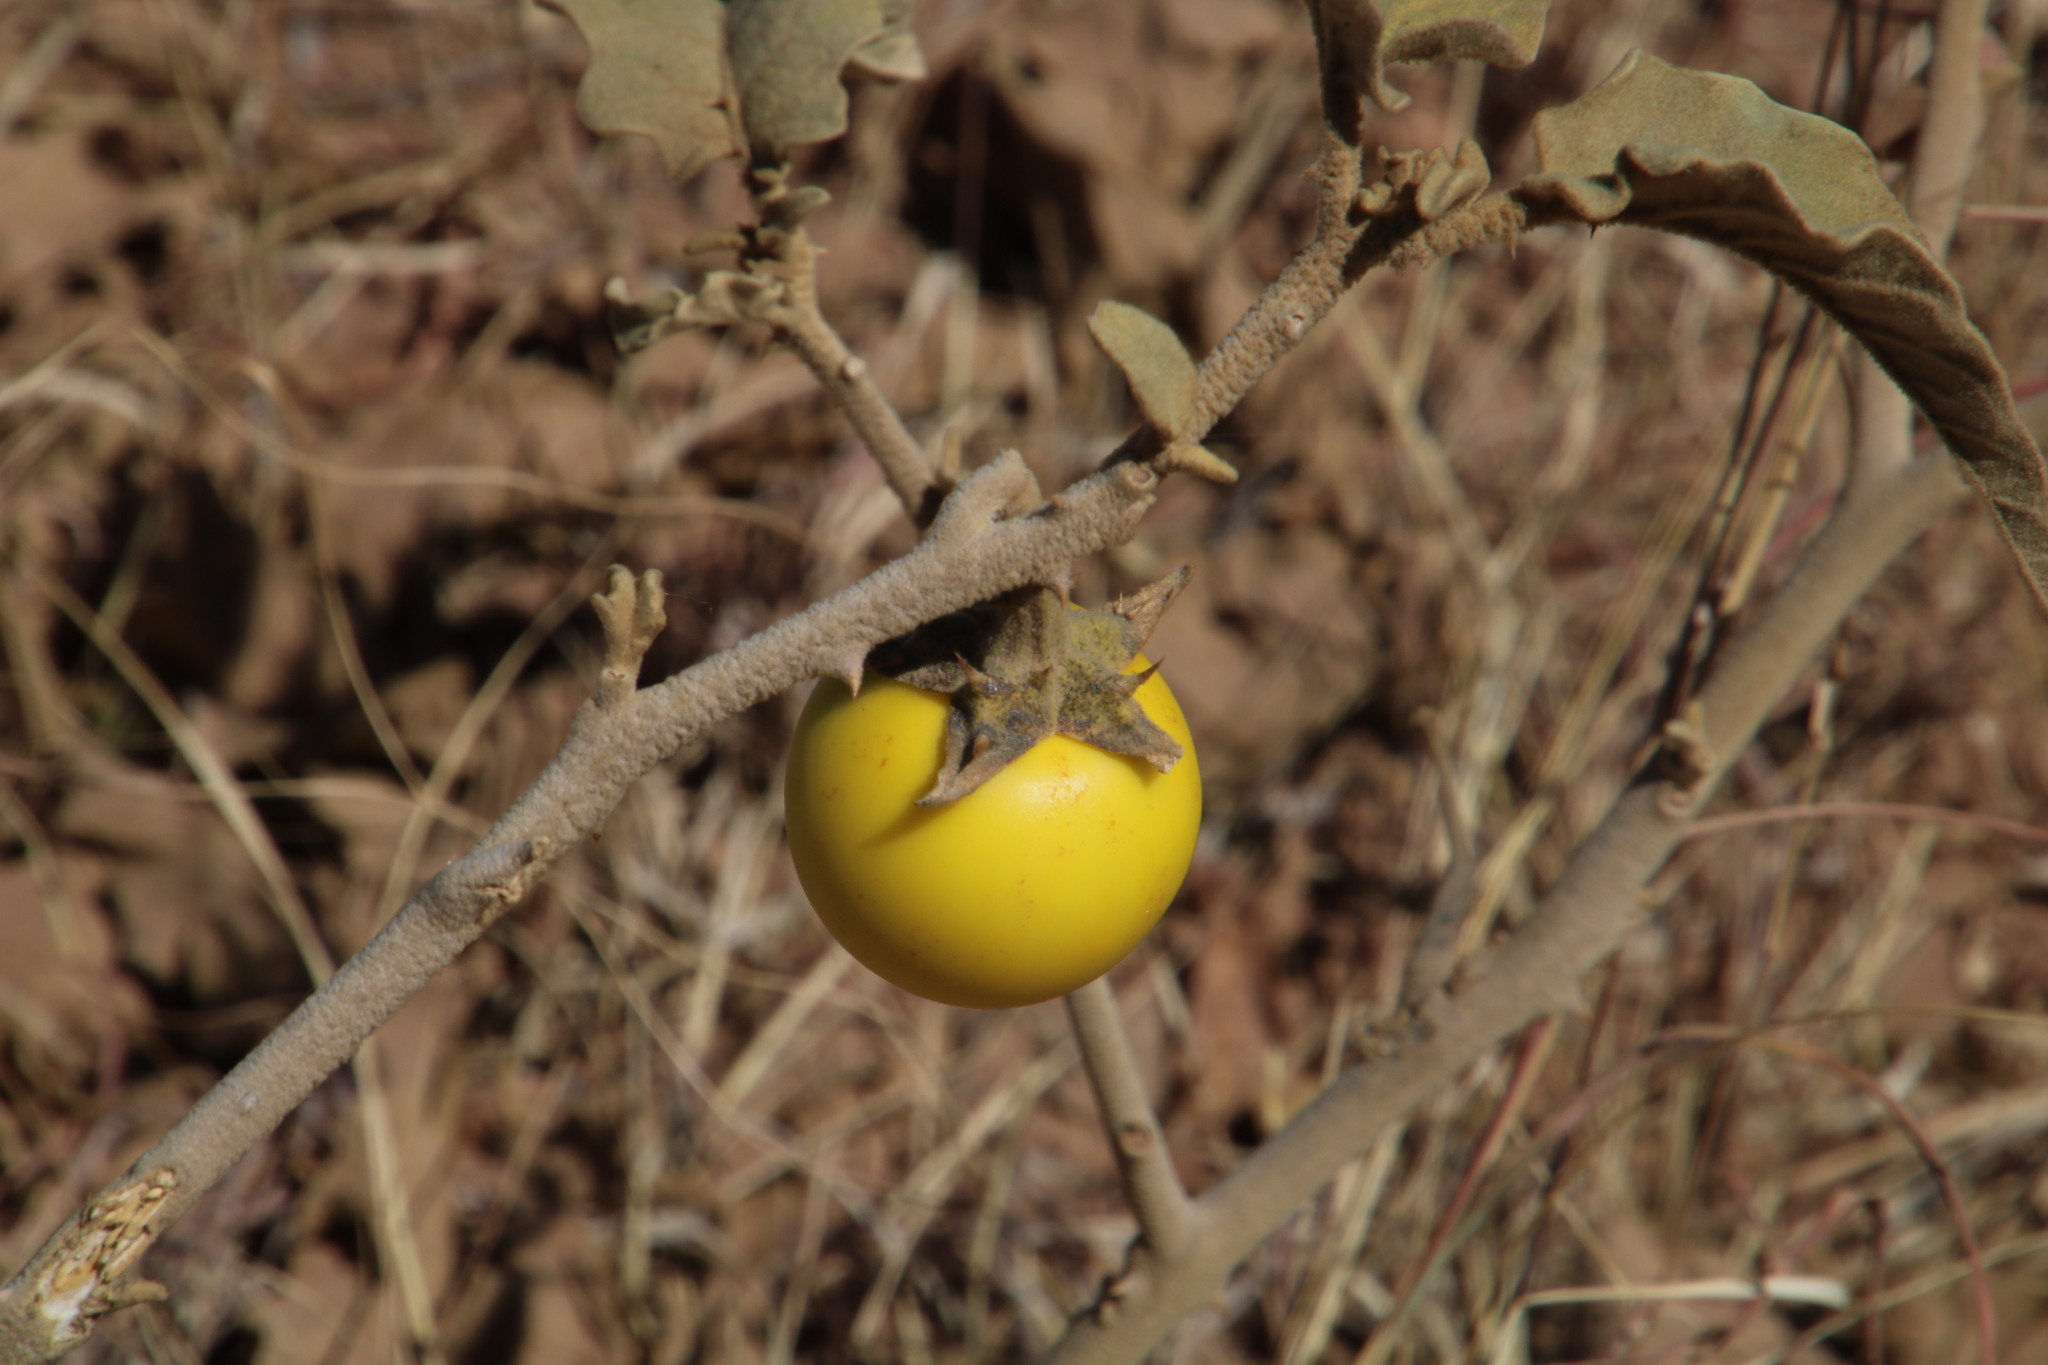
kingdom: Plantae
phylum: Tracheophyta
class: Magnoliopsida
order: Solanales
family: Solanaceae
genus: Solanum
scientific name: Solanum lichtensteinii
